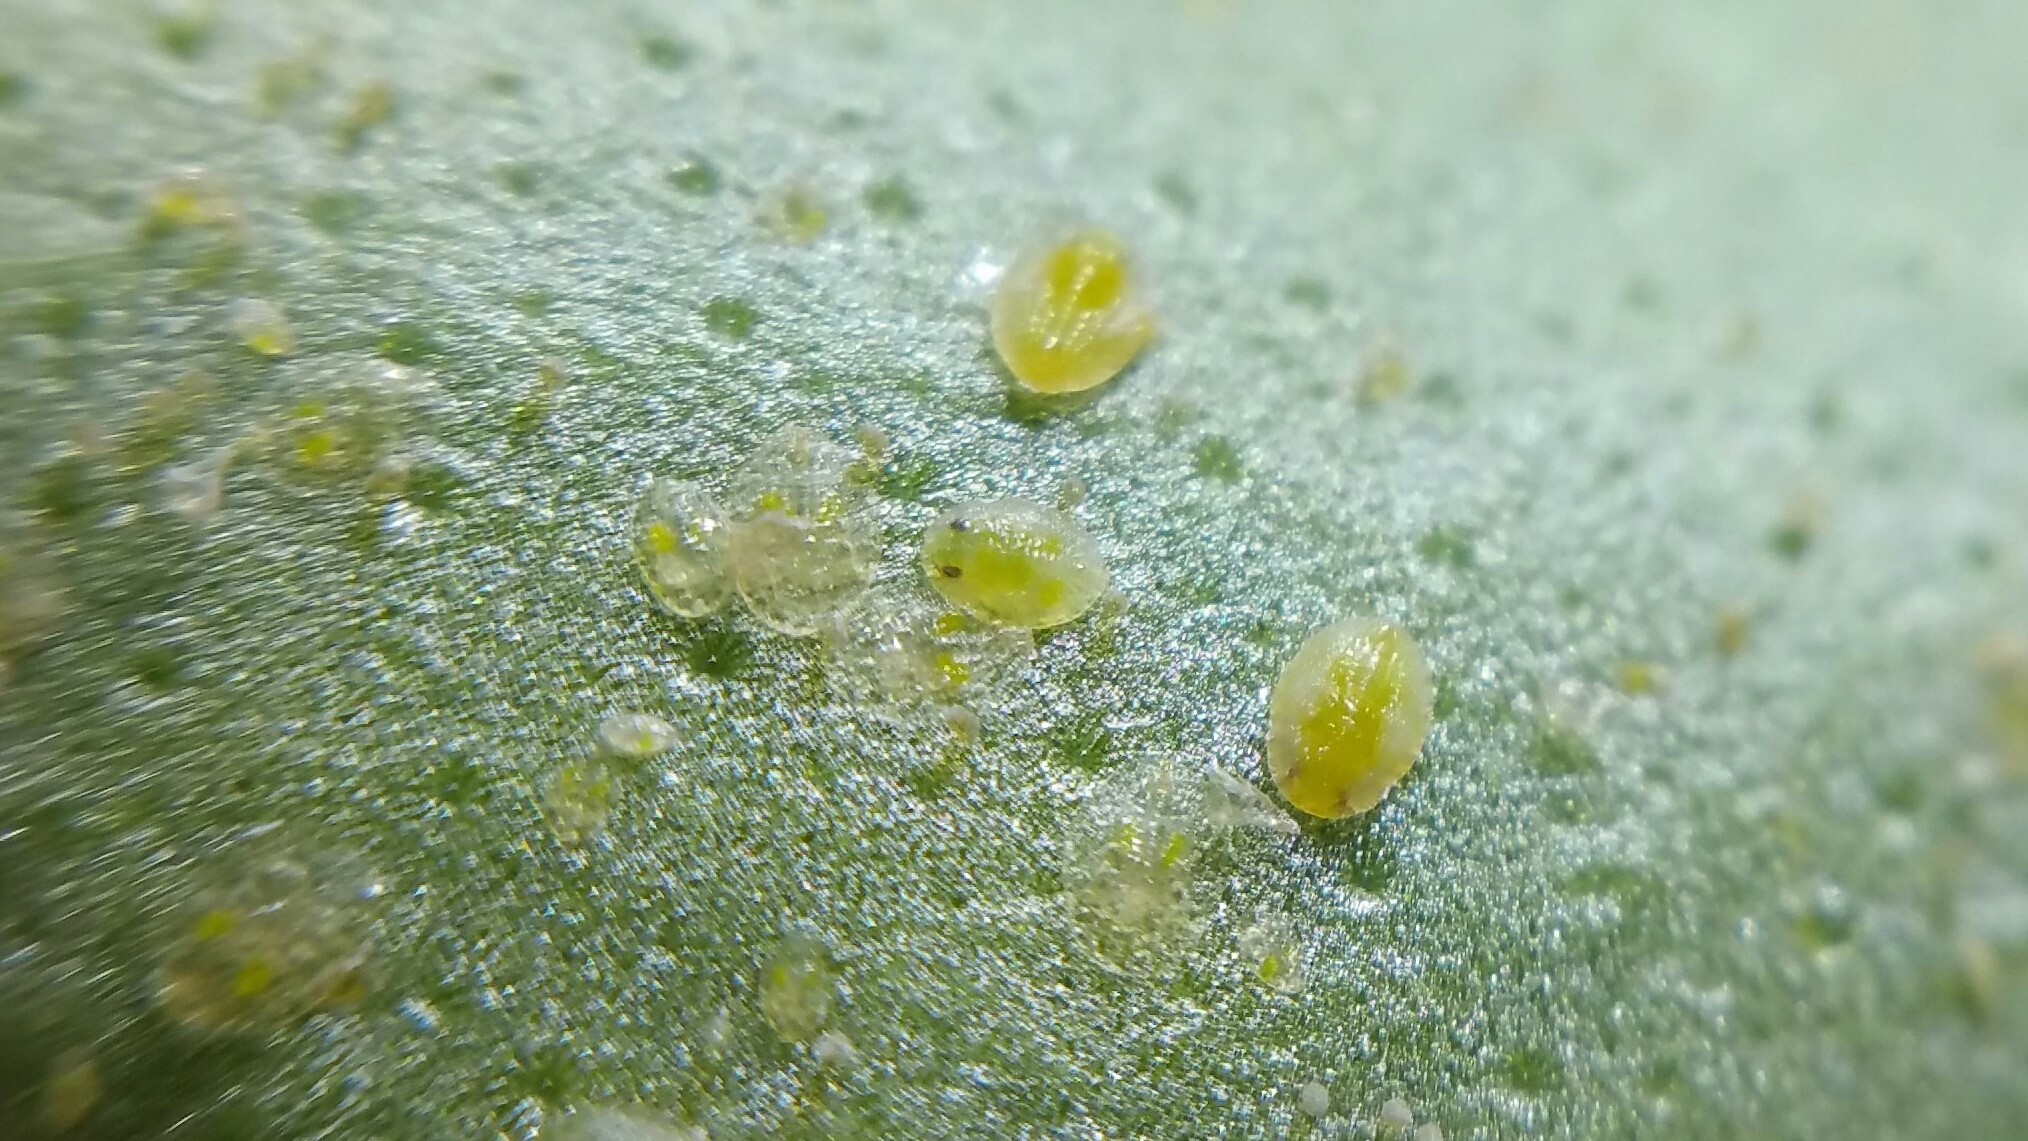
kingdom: Animalia
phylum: Arthropoda
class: Insecta
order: Hemiptera
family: Aleyrodidae
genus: Bemisia
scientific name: Bemisia tabaci
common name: Sweetpotato whitefly
